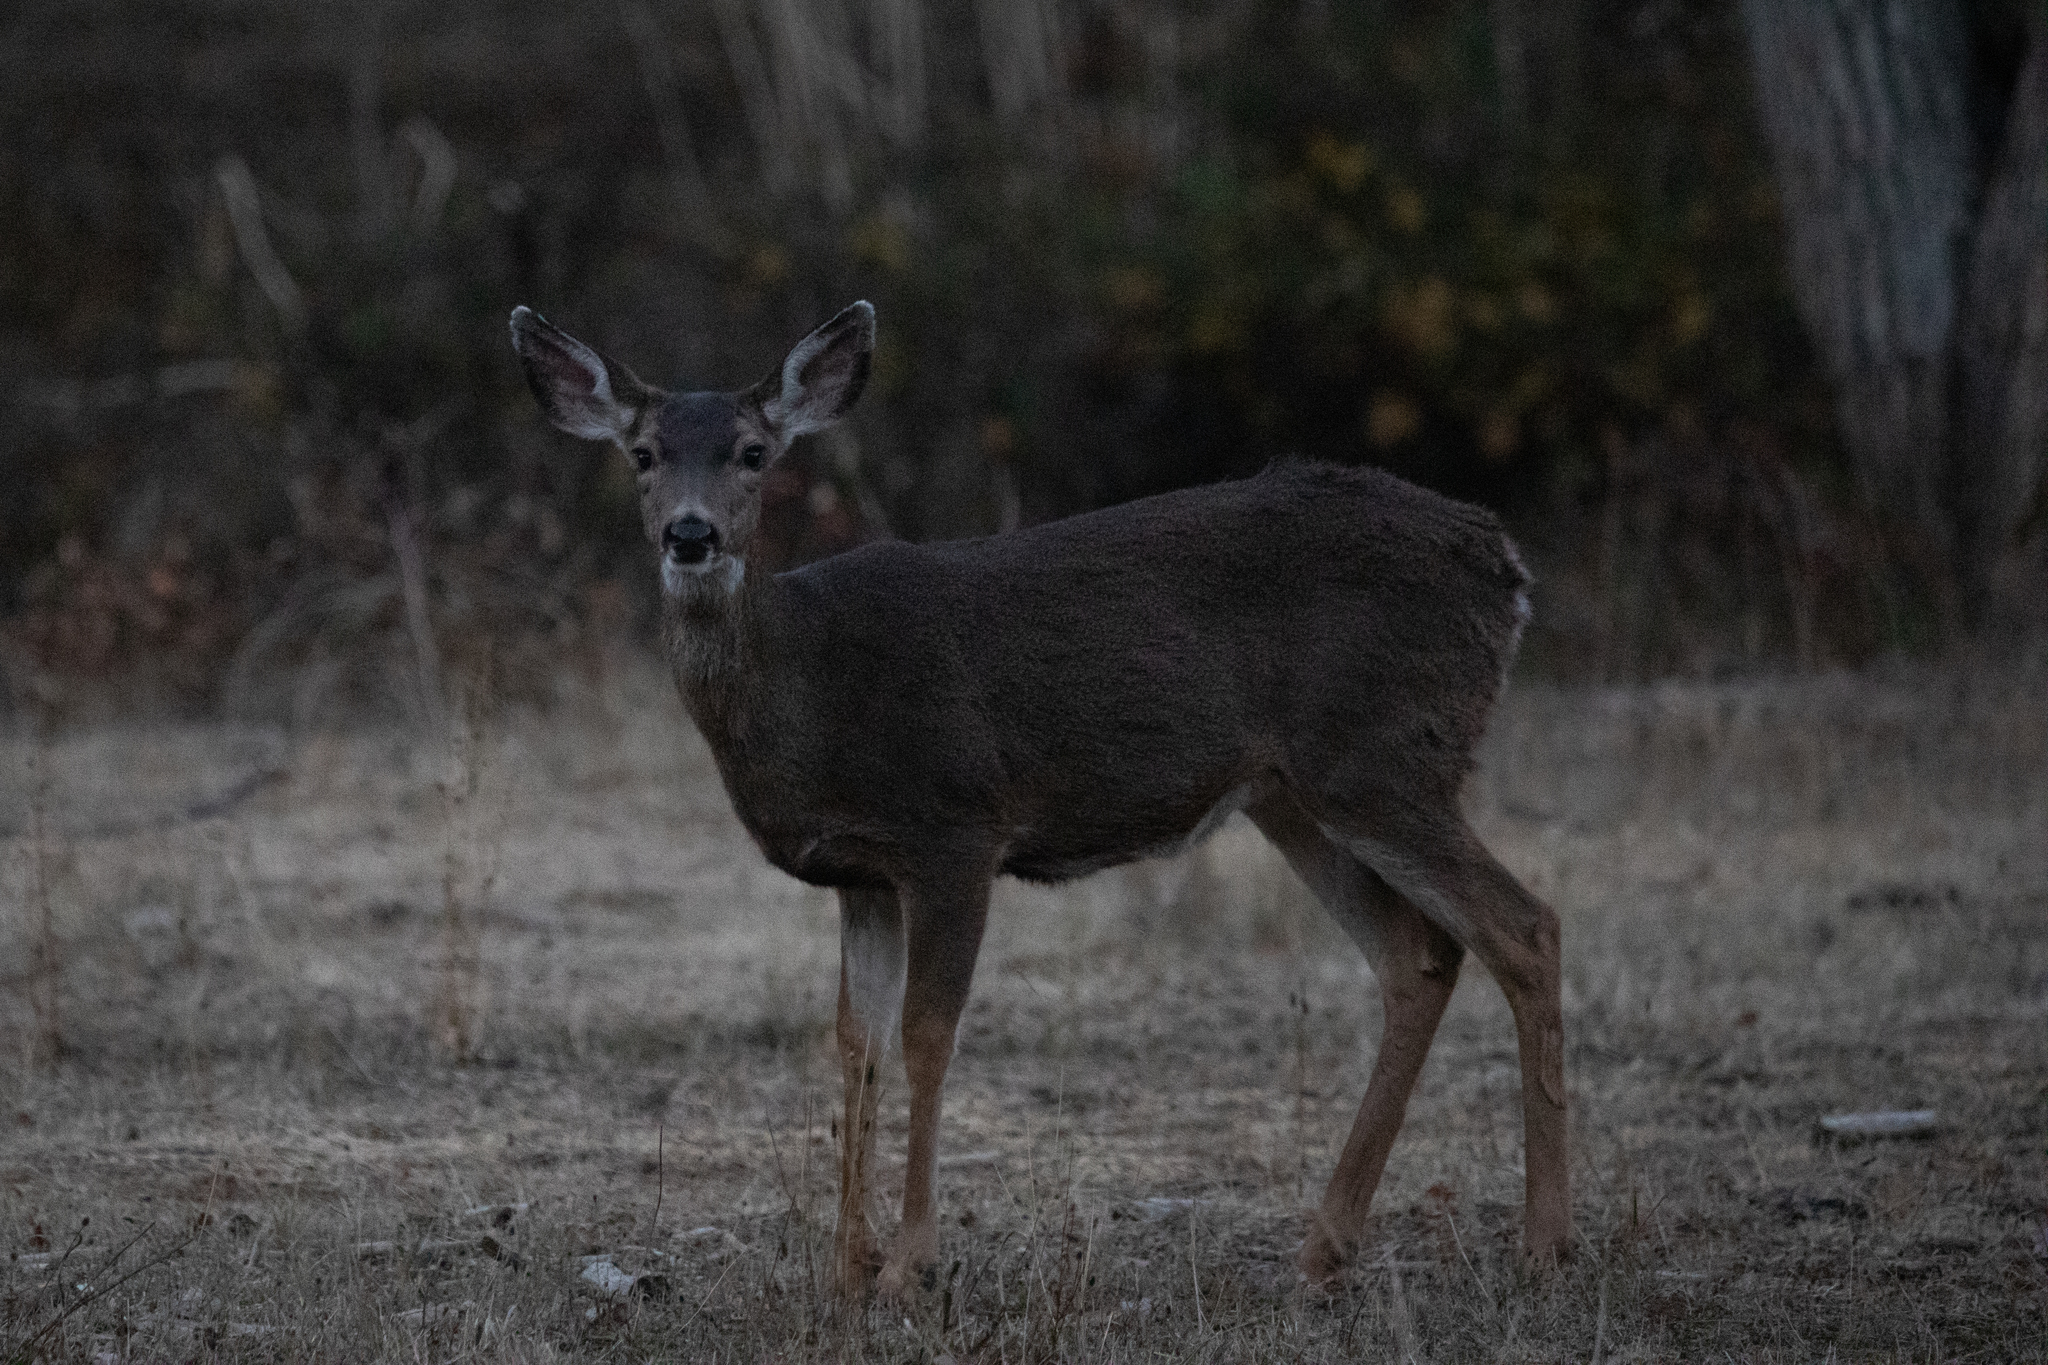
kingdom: Animalia
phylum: Chordata
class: Mammalia
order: Artiodactyla
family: Cervidae
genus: Odocoileus
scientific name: Odocoileus hemionus
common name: Mule deer
